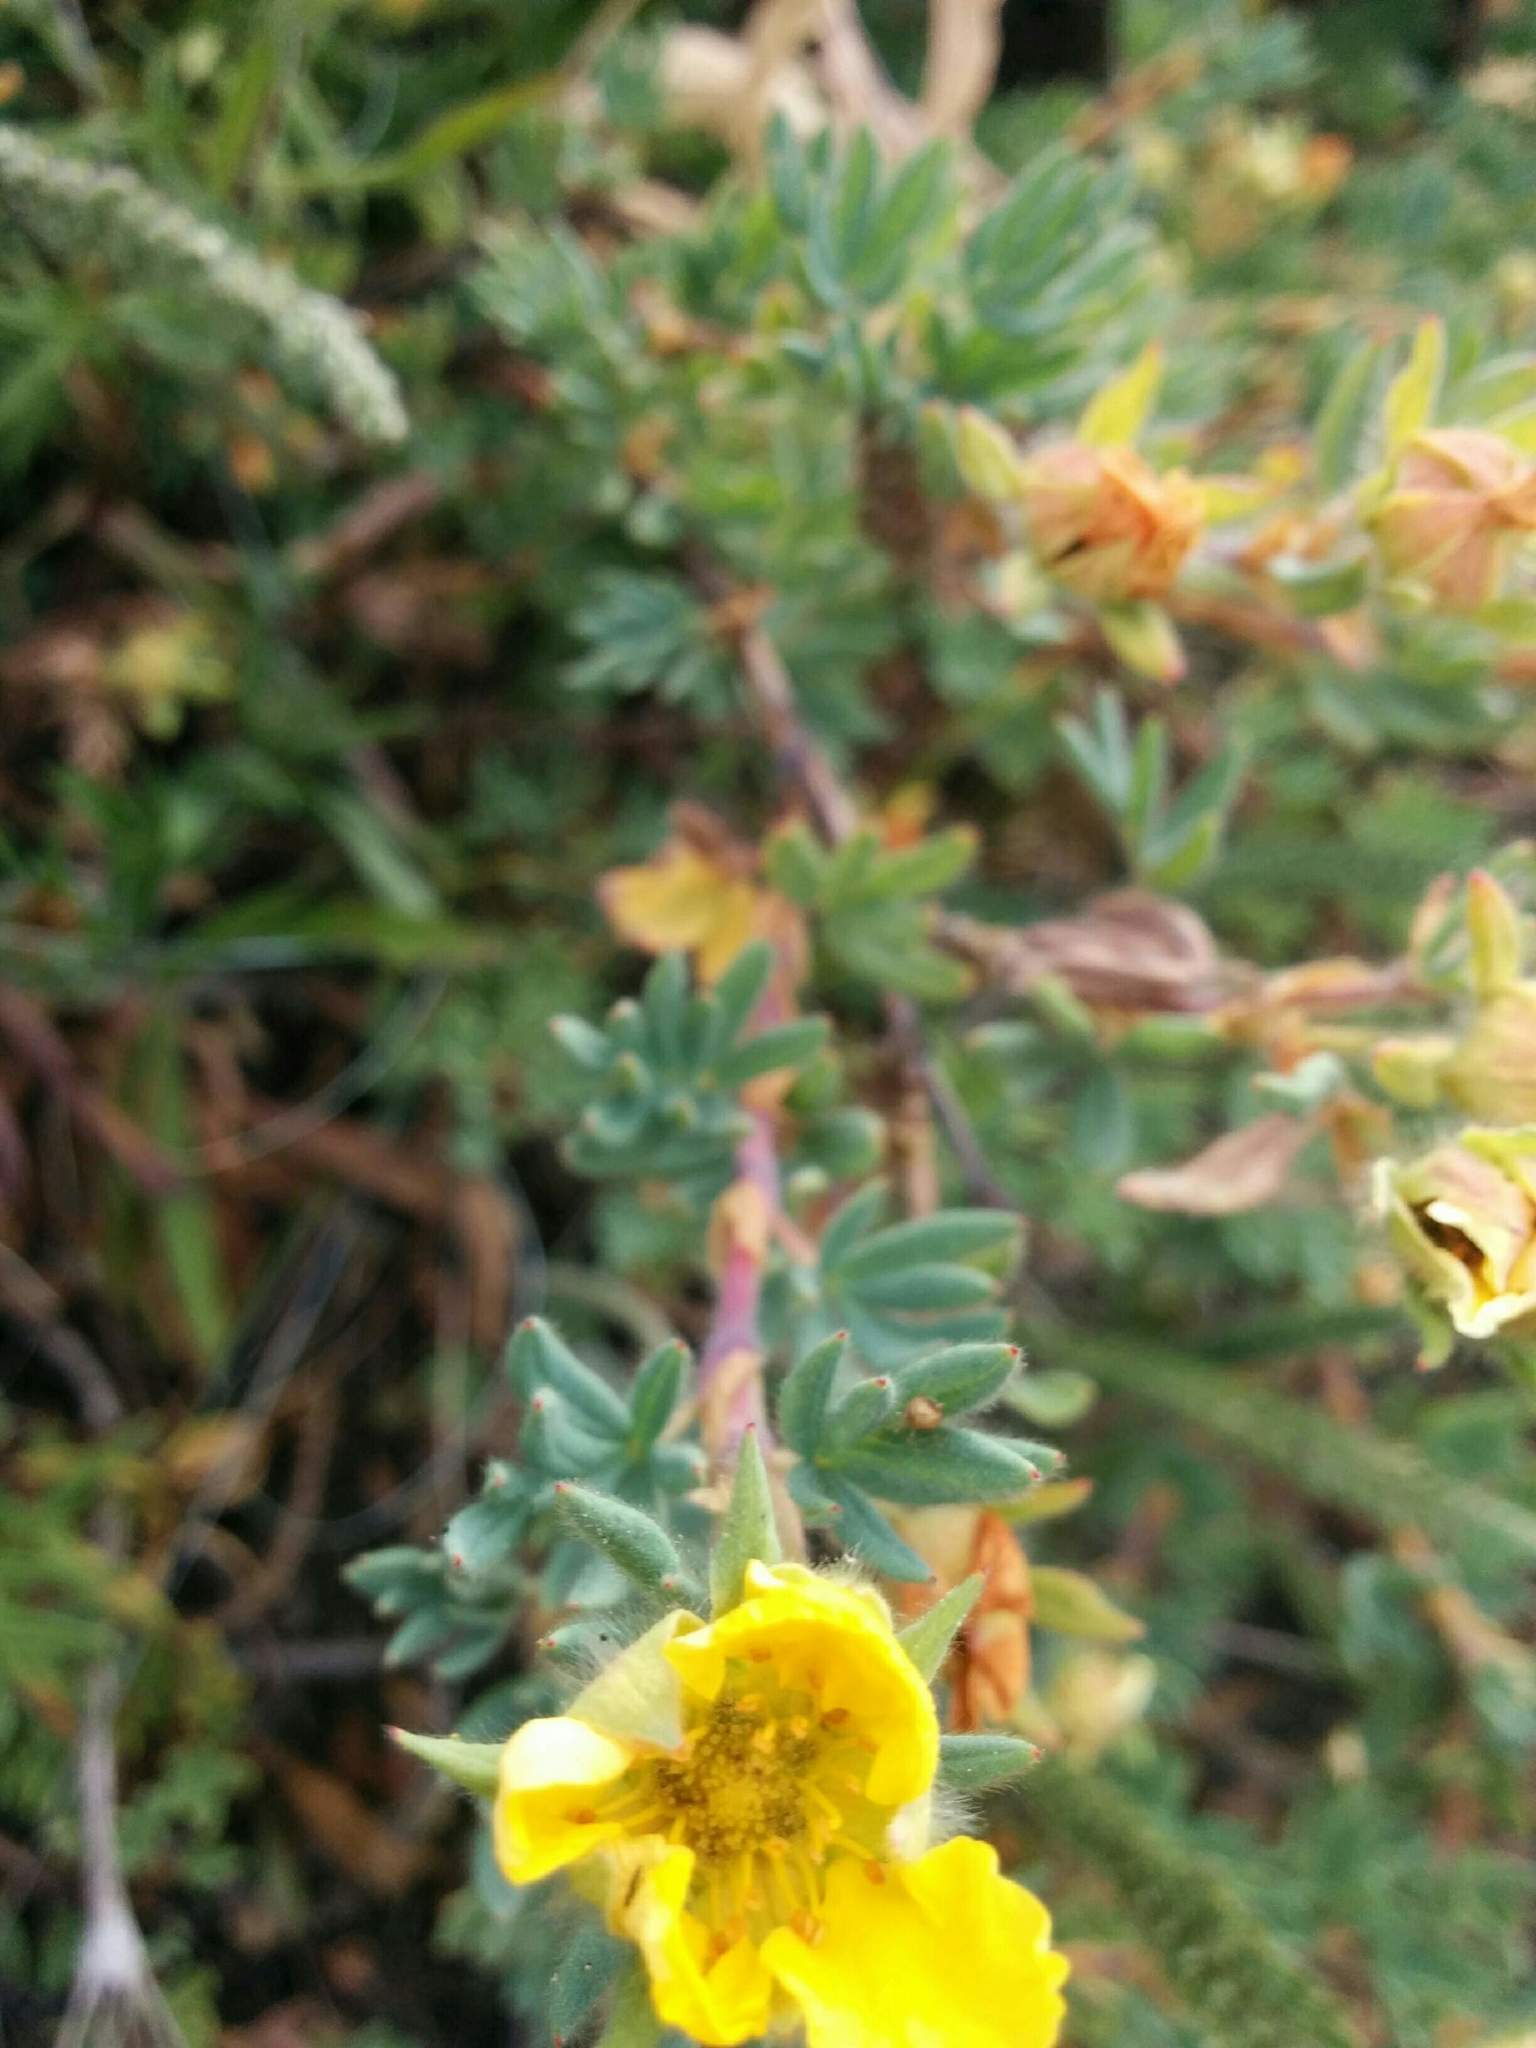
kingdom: Plantae
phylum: Tracheophyta
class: Magnoliopsida
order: Rosales
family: Rosaceae
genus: Dasiphora
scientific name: Dasiphora fruticosa
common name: Shrubby cinquefoil
